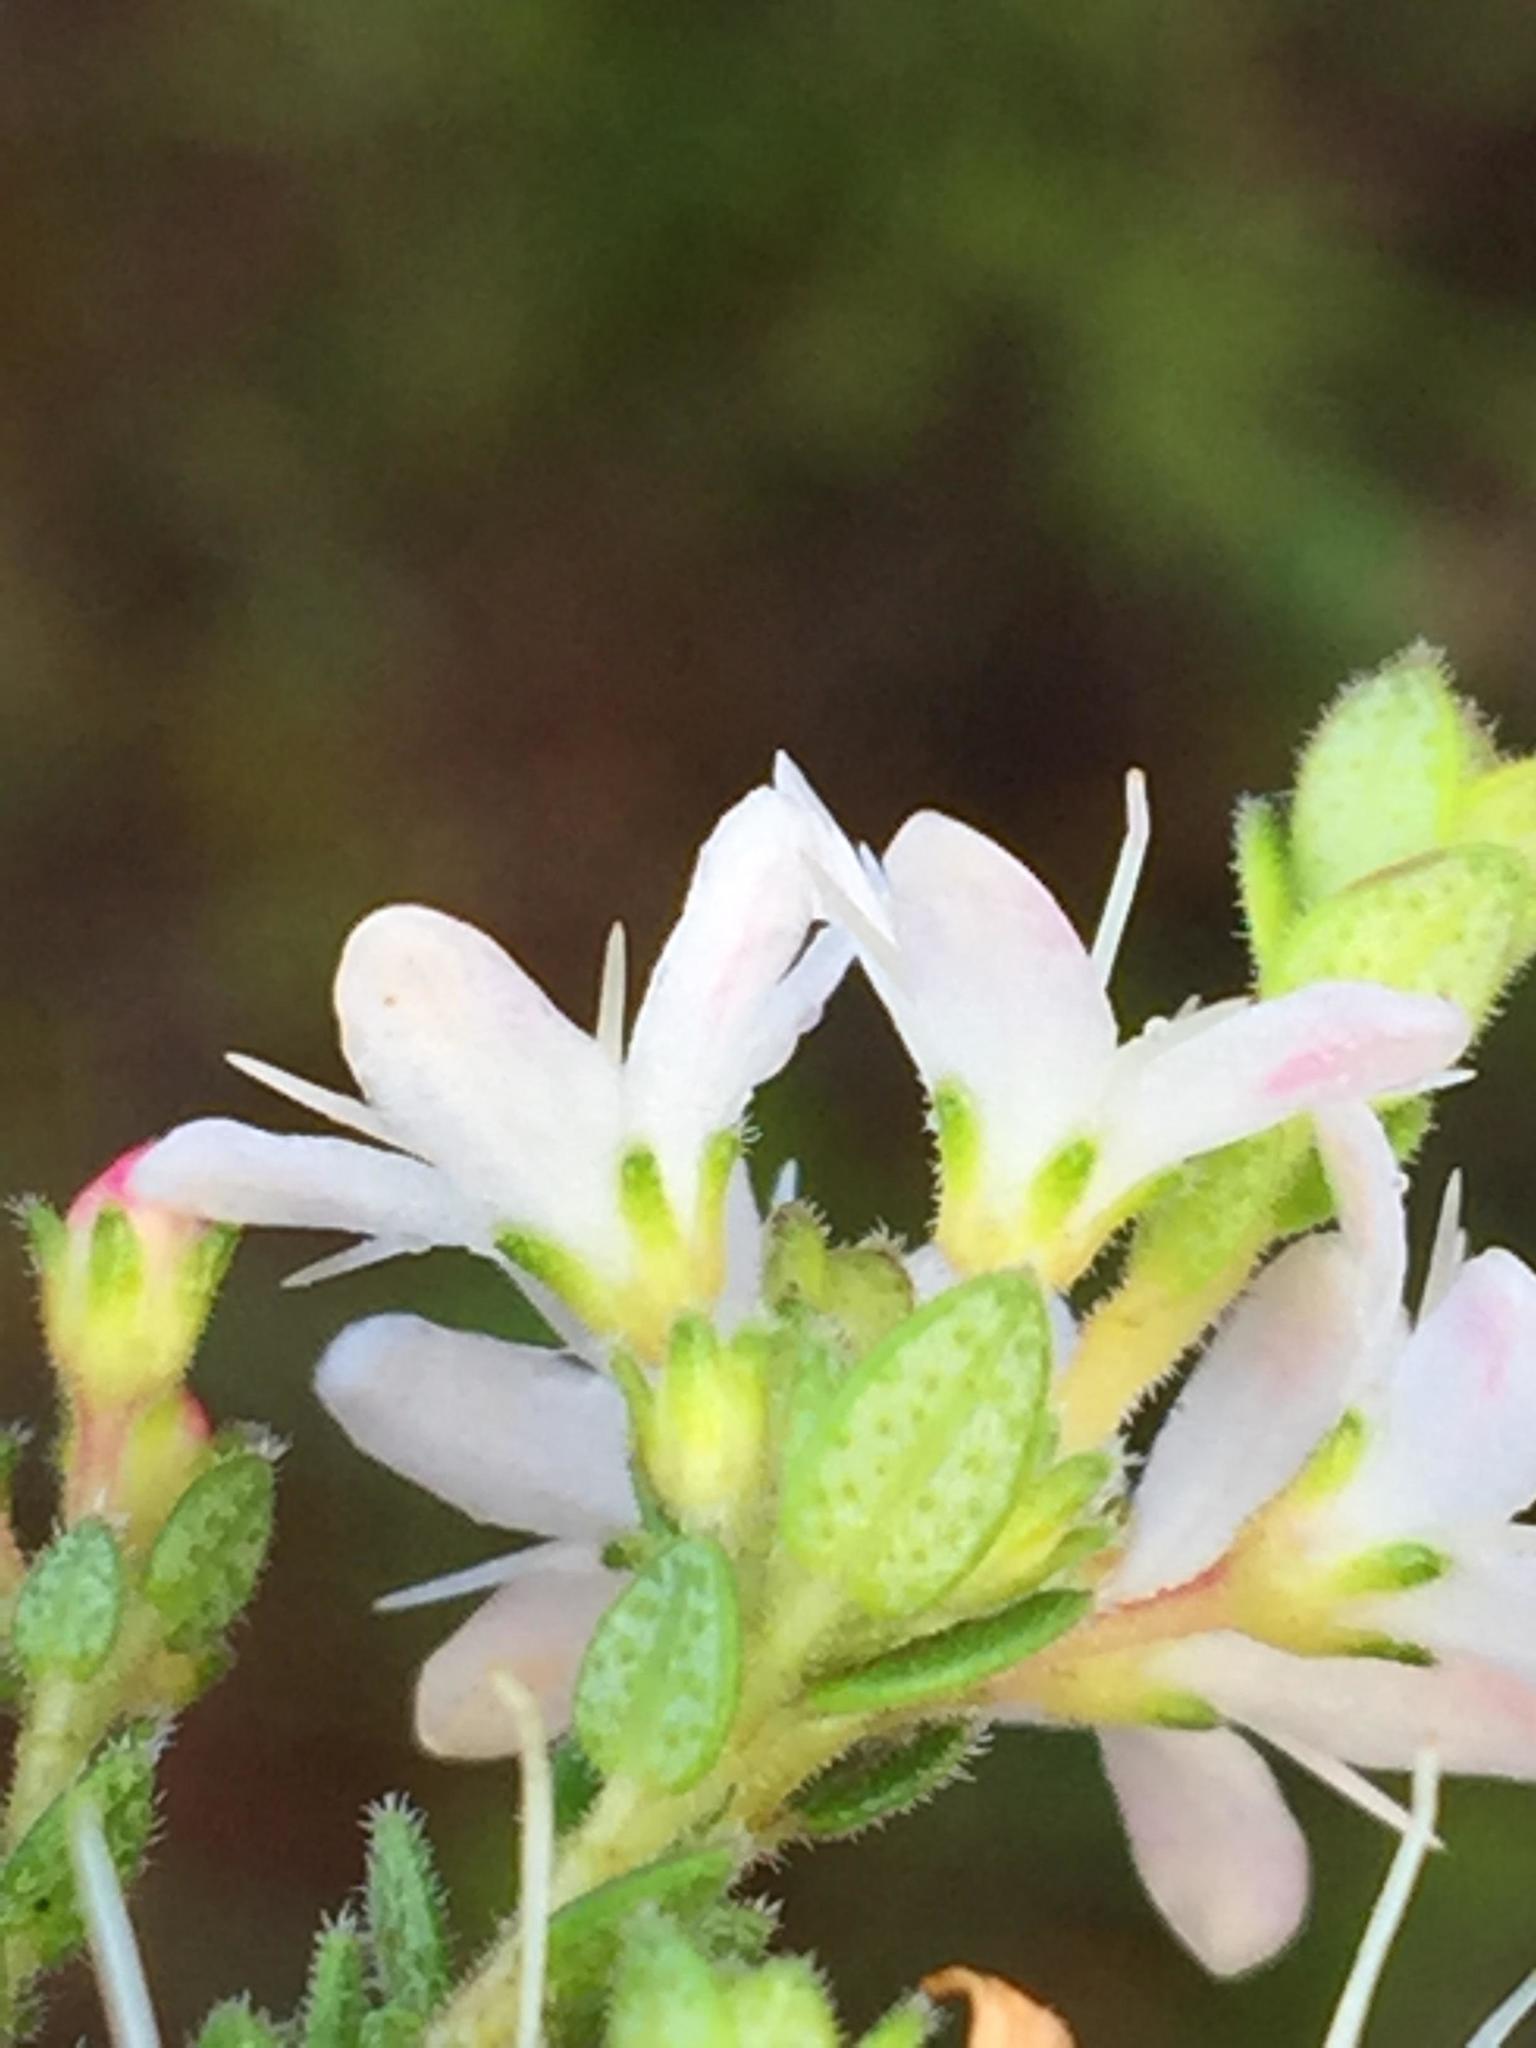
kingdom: Plantae
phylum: Tracheophyta
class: Magnoliopsida
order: Sapindales
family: Rutaceae
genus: Agathosma
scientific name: Agathosma planifolia
